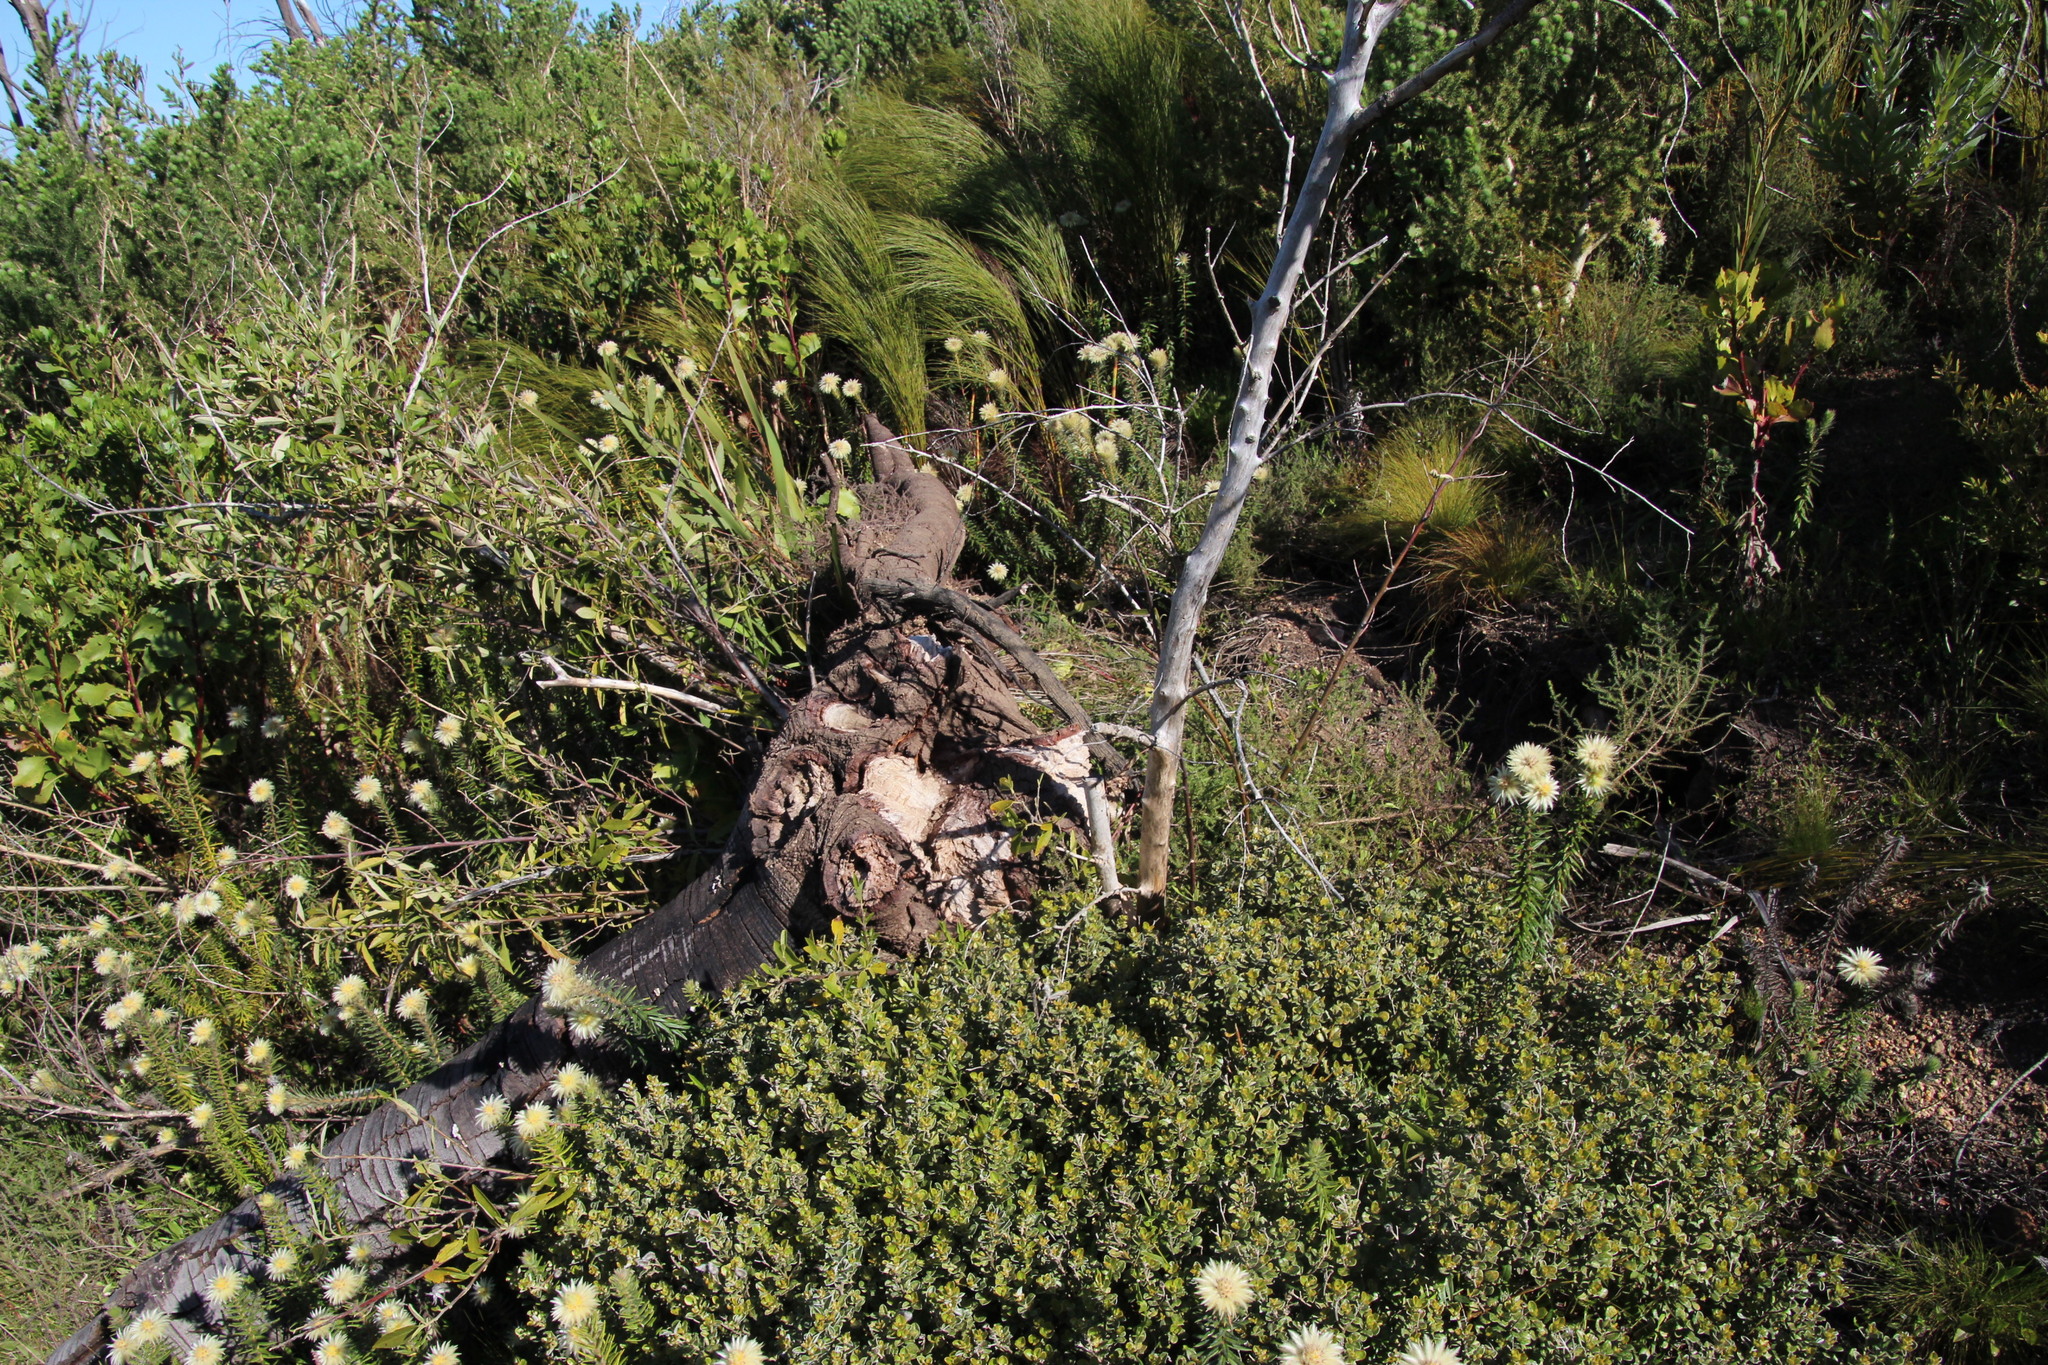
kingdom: Plantae
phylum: Tracheophyta
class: Liliopsida
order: Poales
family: Restionaceae
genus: Cannomois
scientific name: Cannomois virgata
